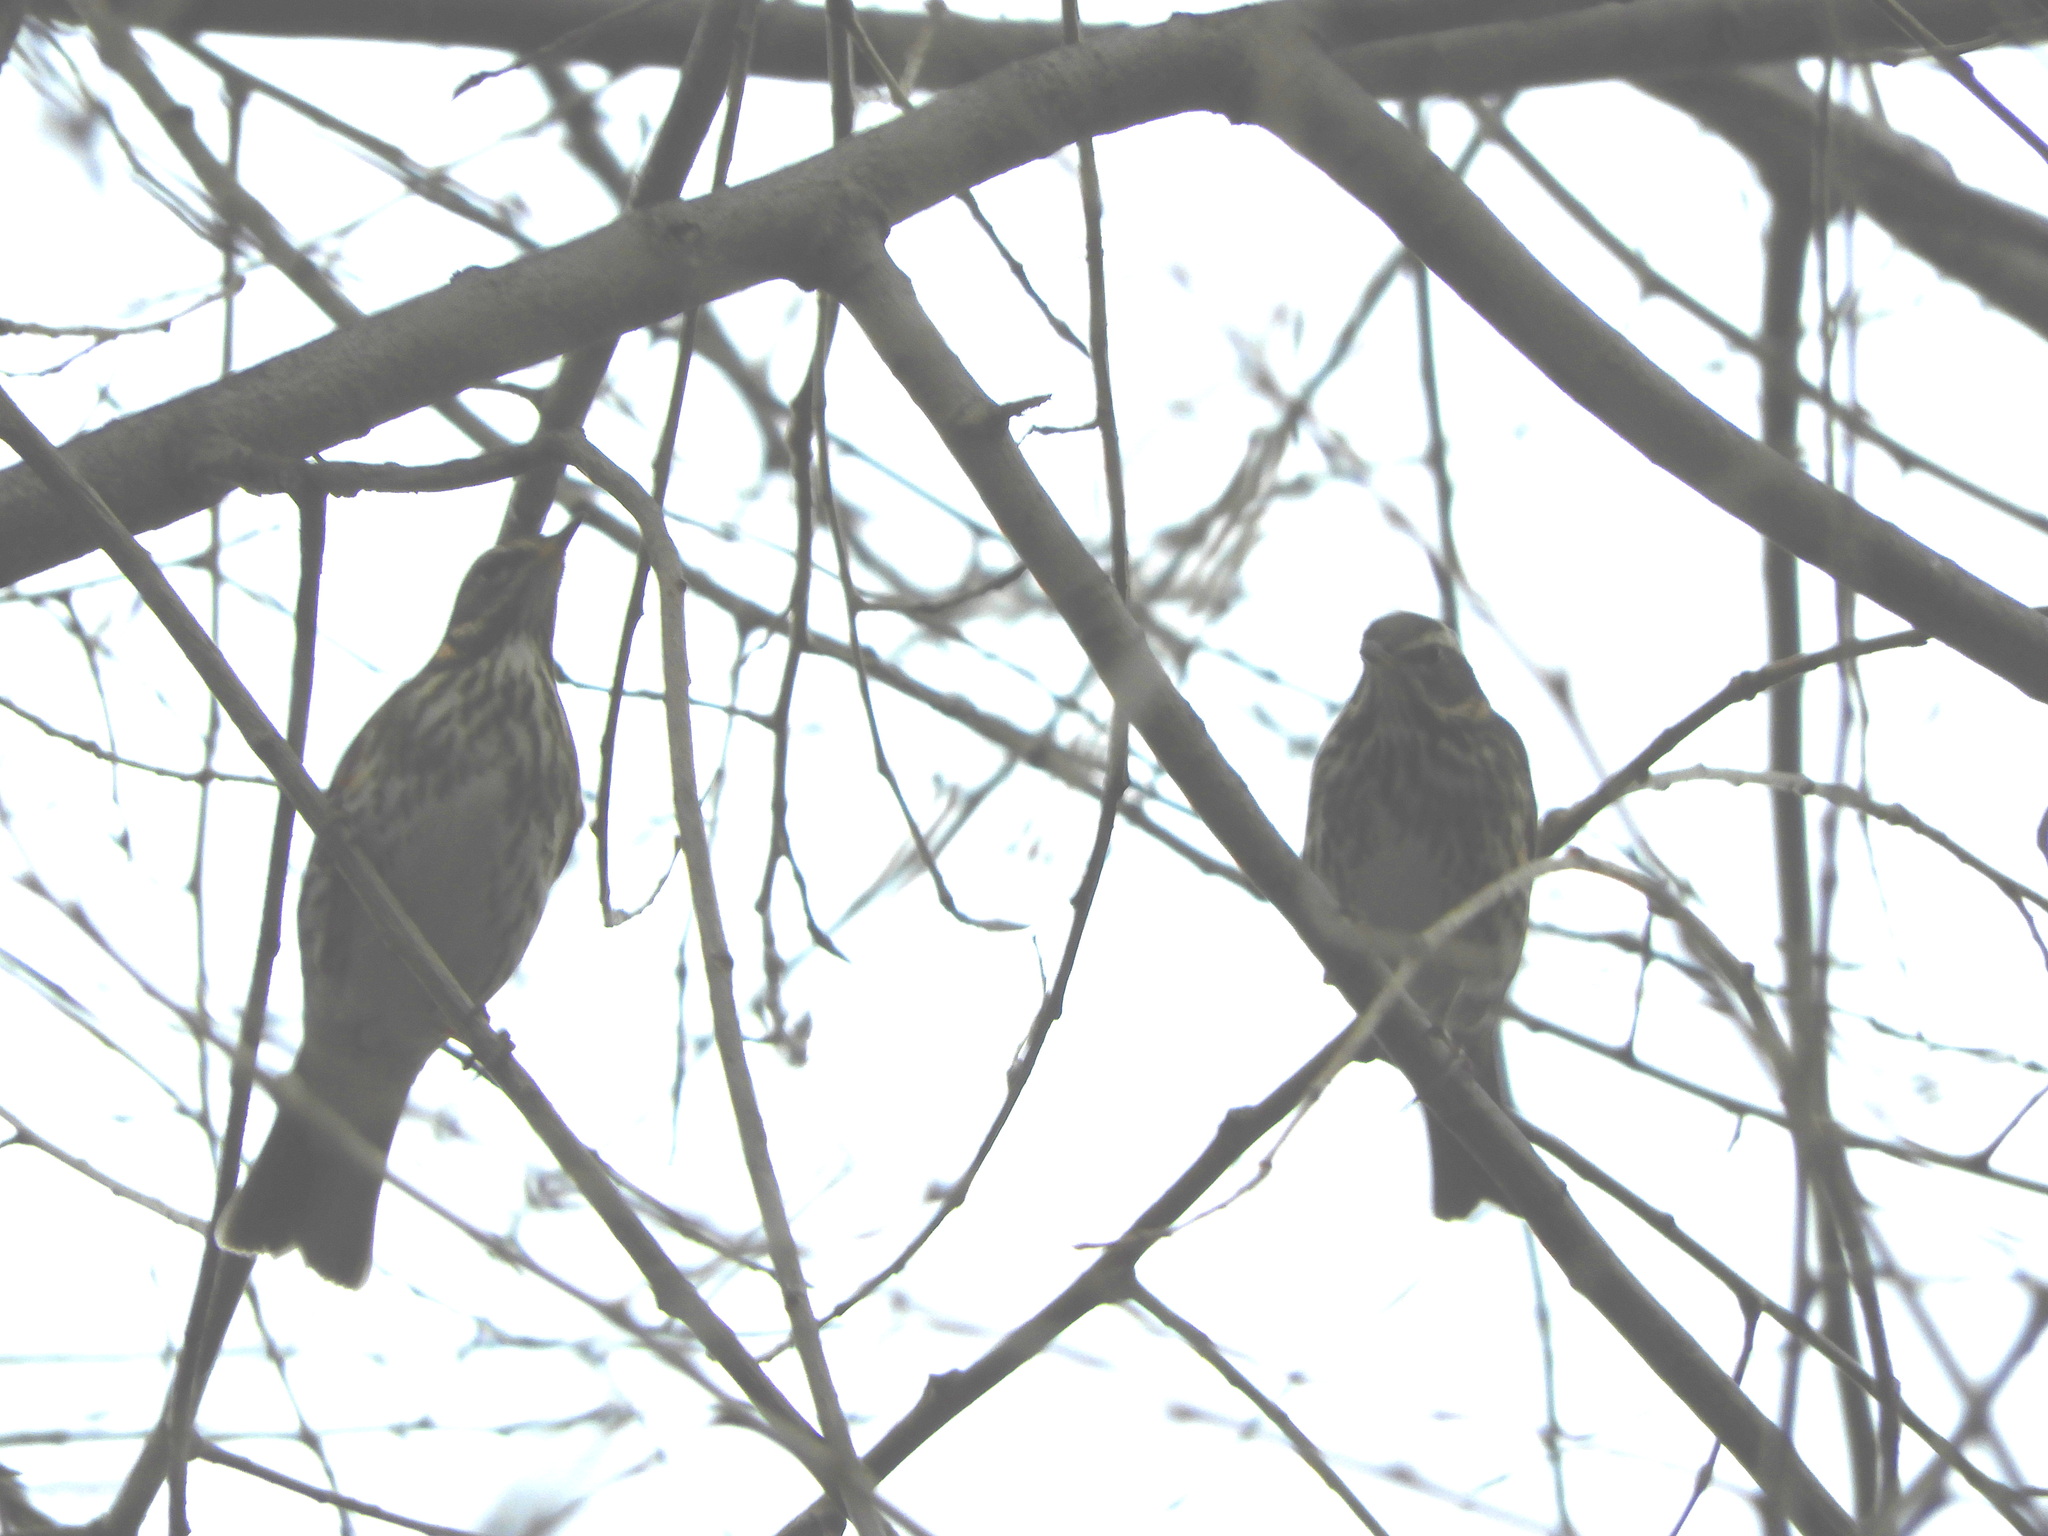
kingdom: Animalia
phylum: Chordata
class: Aves
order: Passeriformes
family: Turdidae
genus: Turdus
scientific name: Turdus iliacus
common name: Redwing
